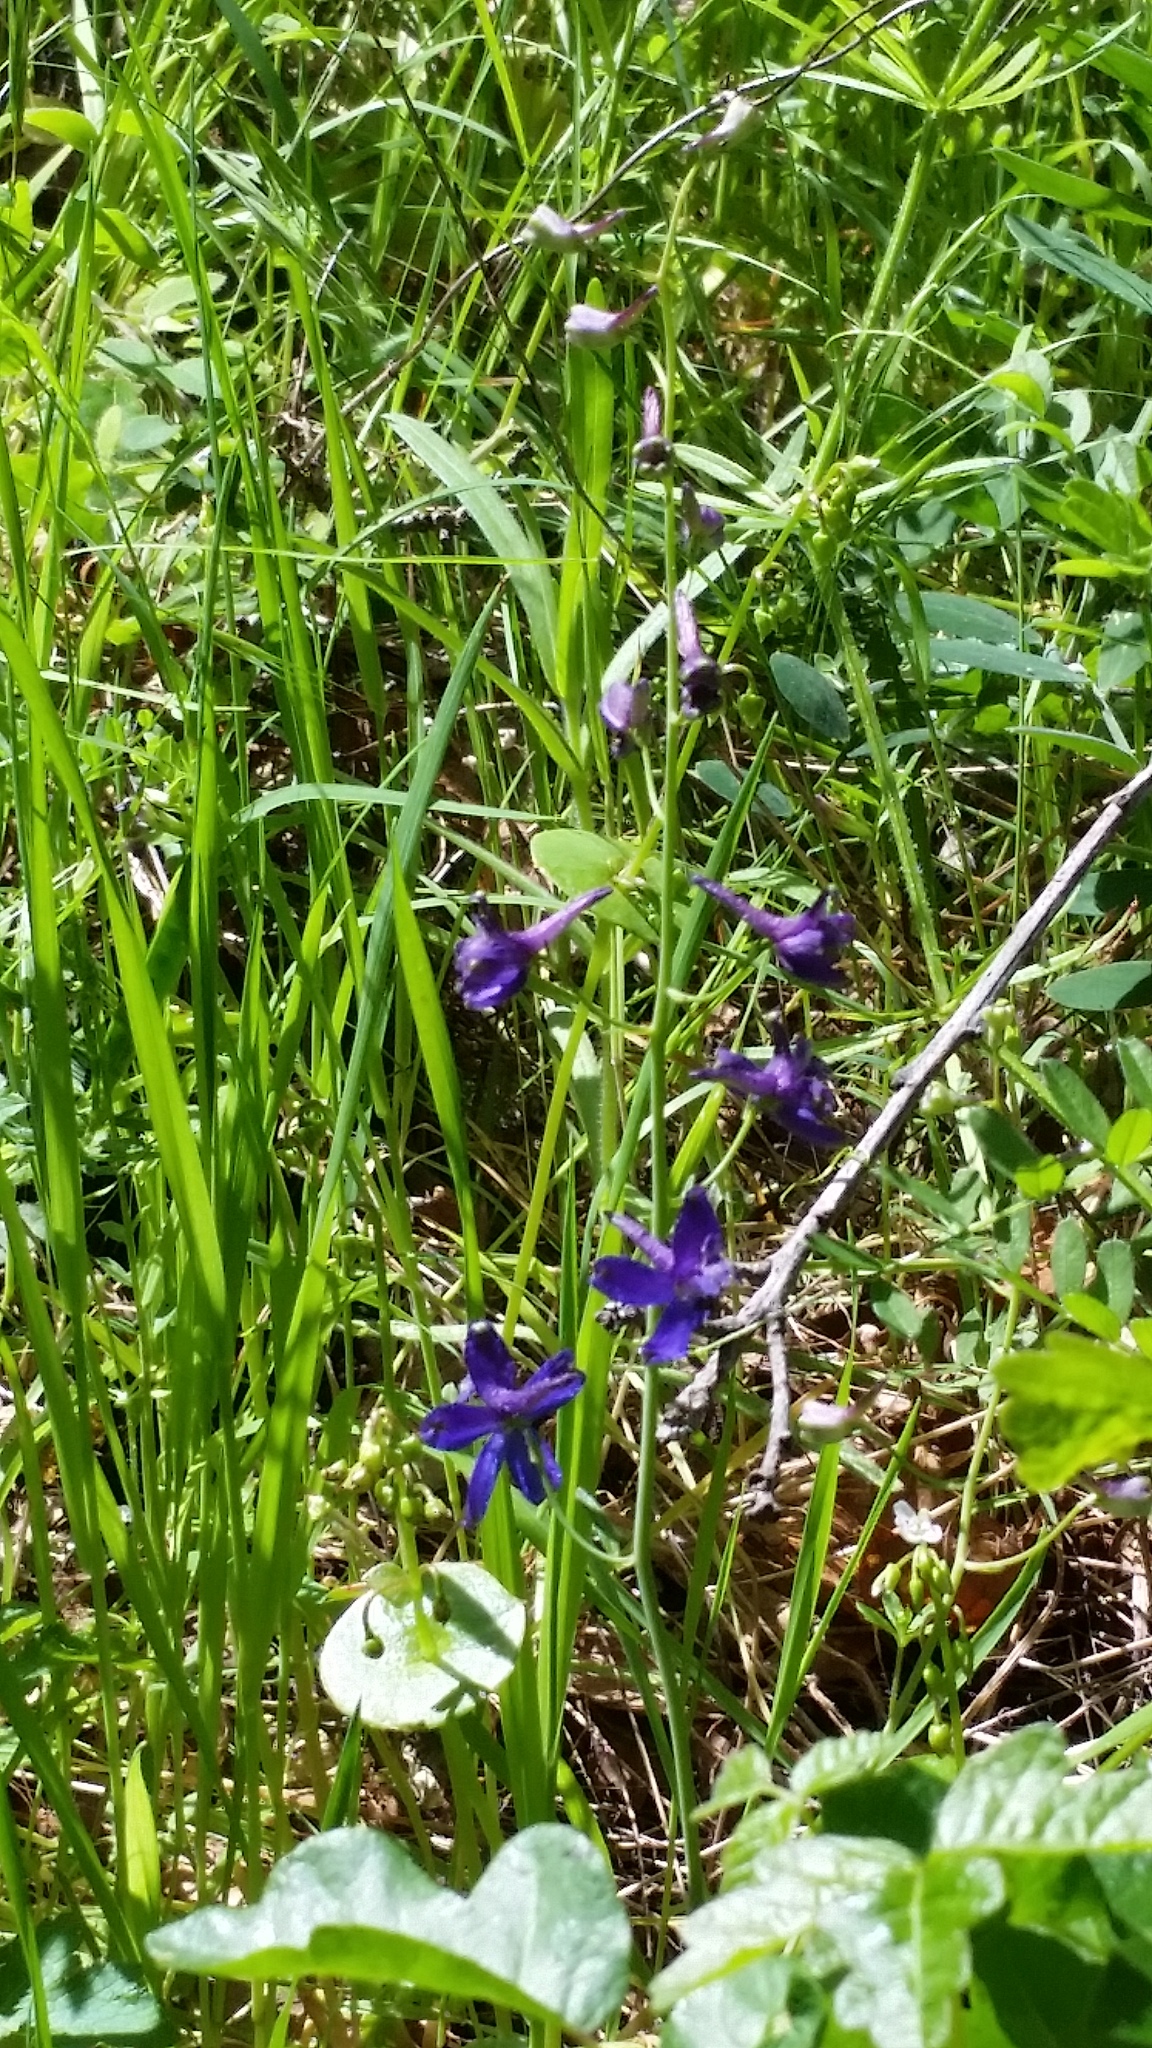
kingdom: Plantae
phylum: Tracheophyta
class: Magnoliopsida
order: Ranunculales
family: Ranunculaceae
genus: Delphinium
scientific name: Delphinium patens
